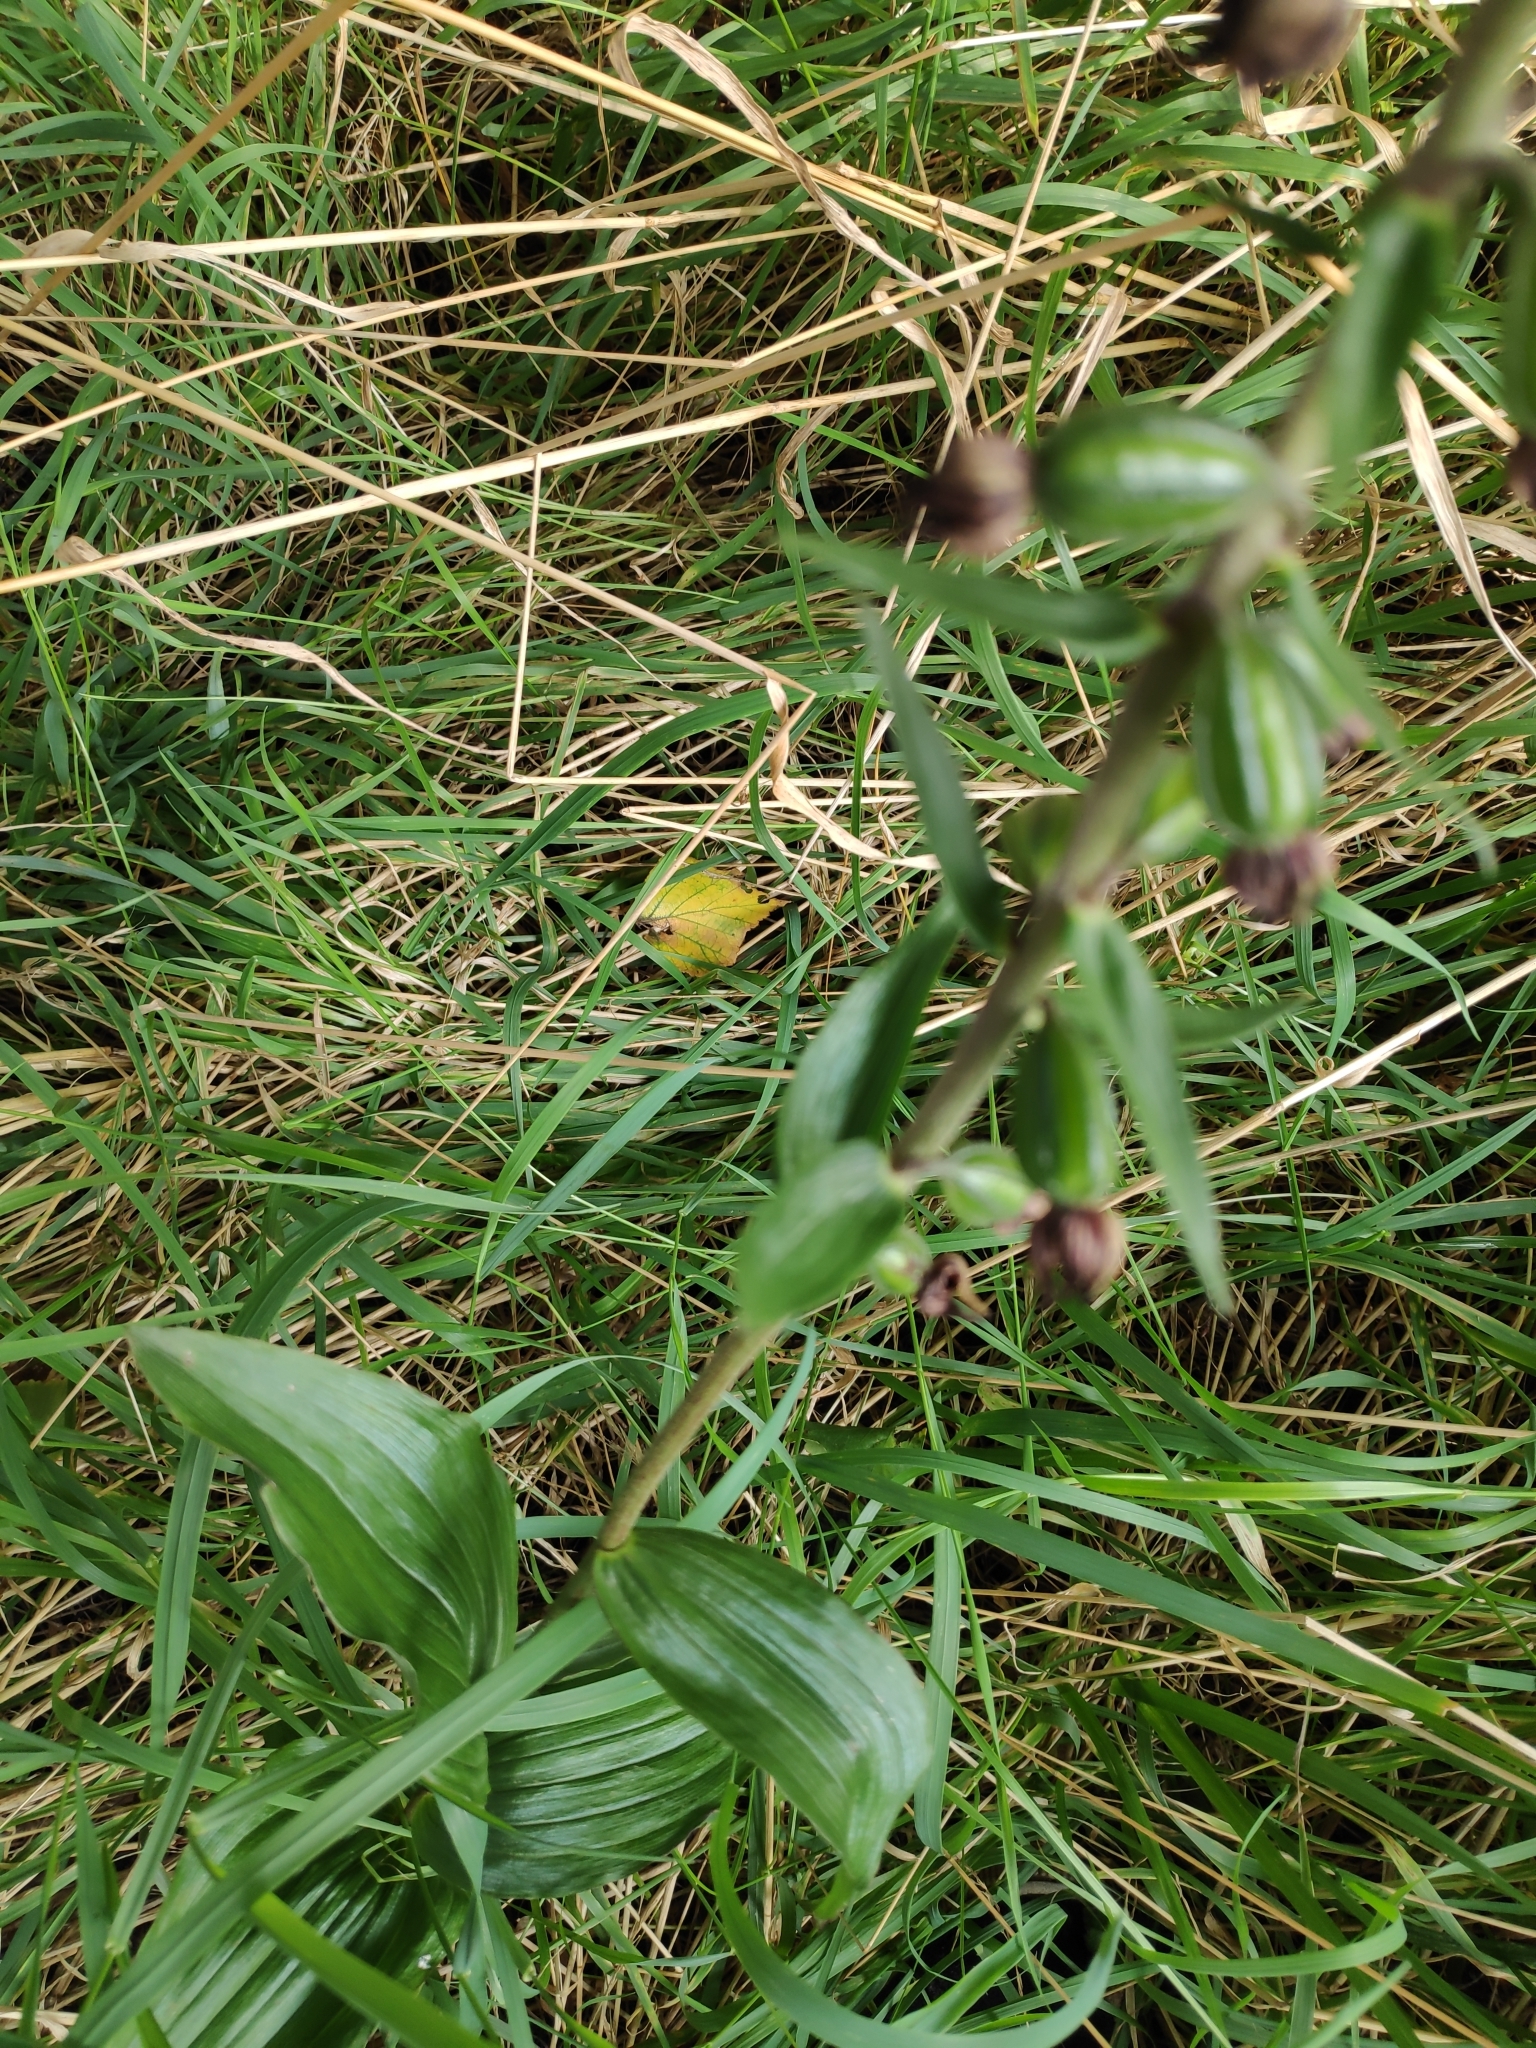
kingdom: Plantae
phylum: Tracheophyta
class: Liliopsida
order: Asparagales
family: Orchidaceae
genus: Epipactis
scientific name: Epipactis helleborine
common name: Broad-leaved helleborine
